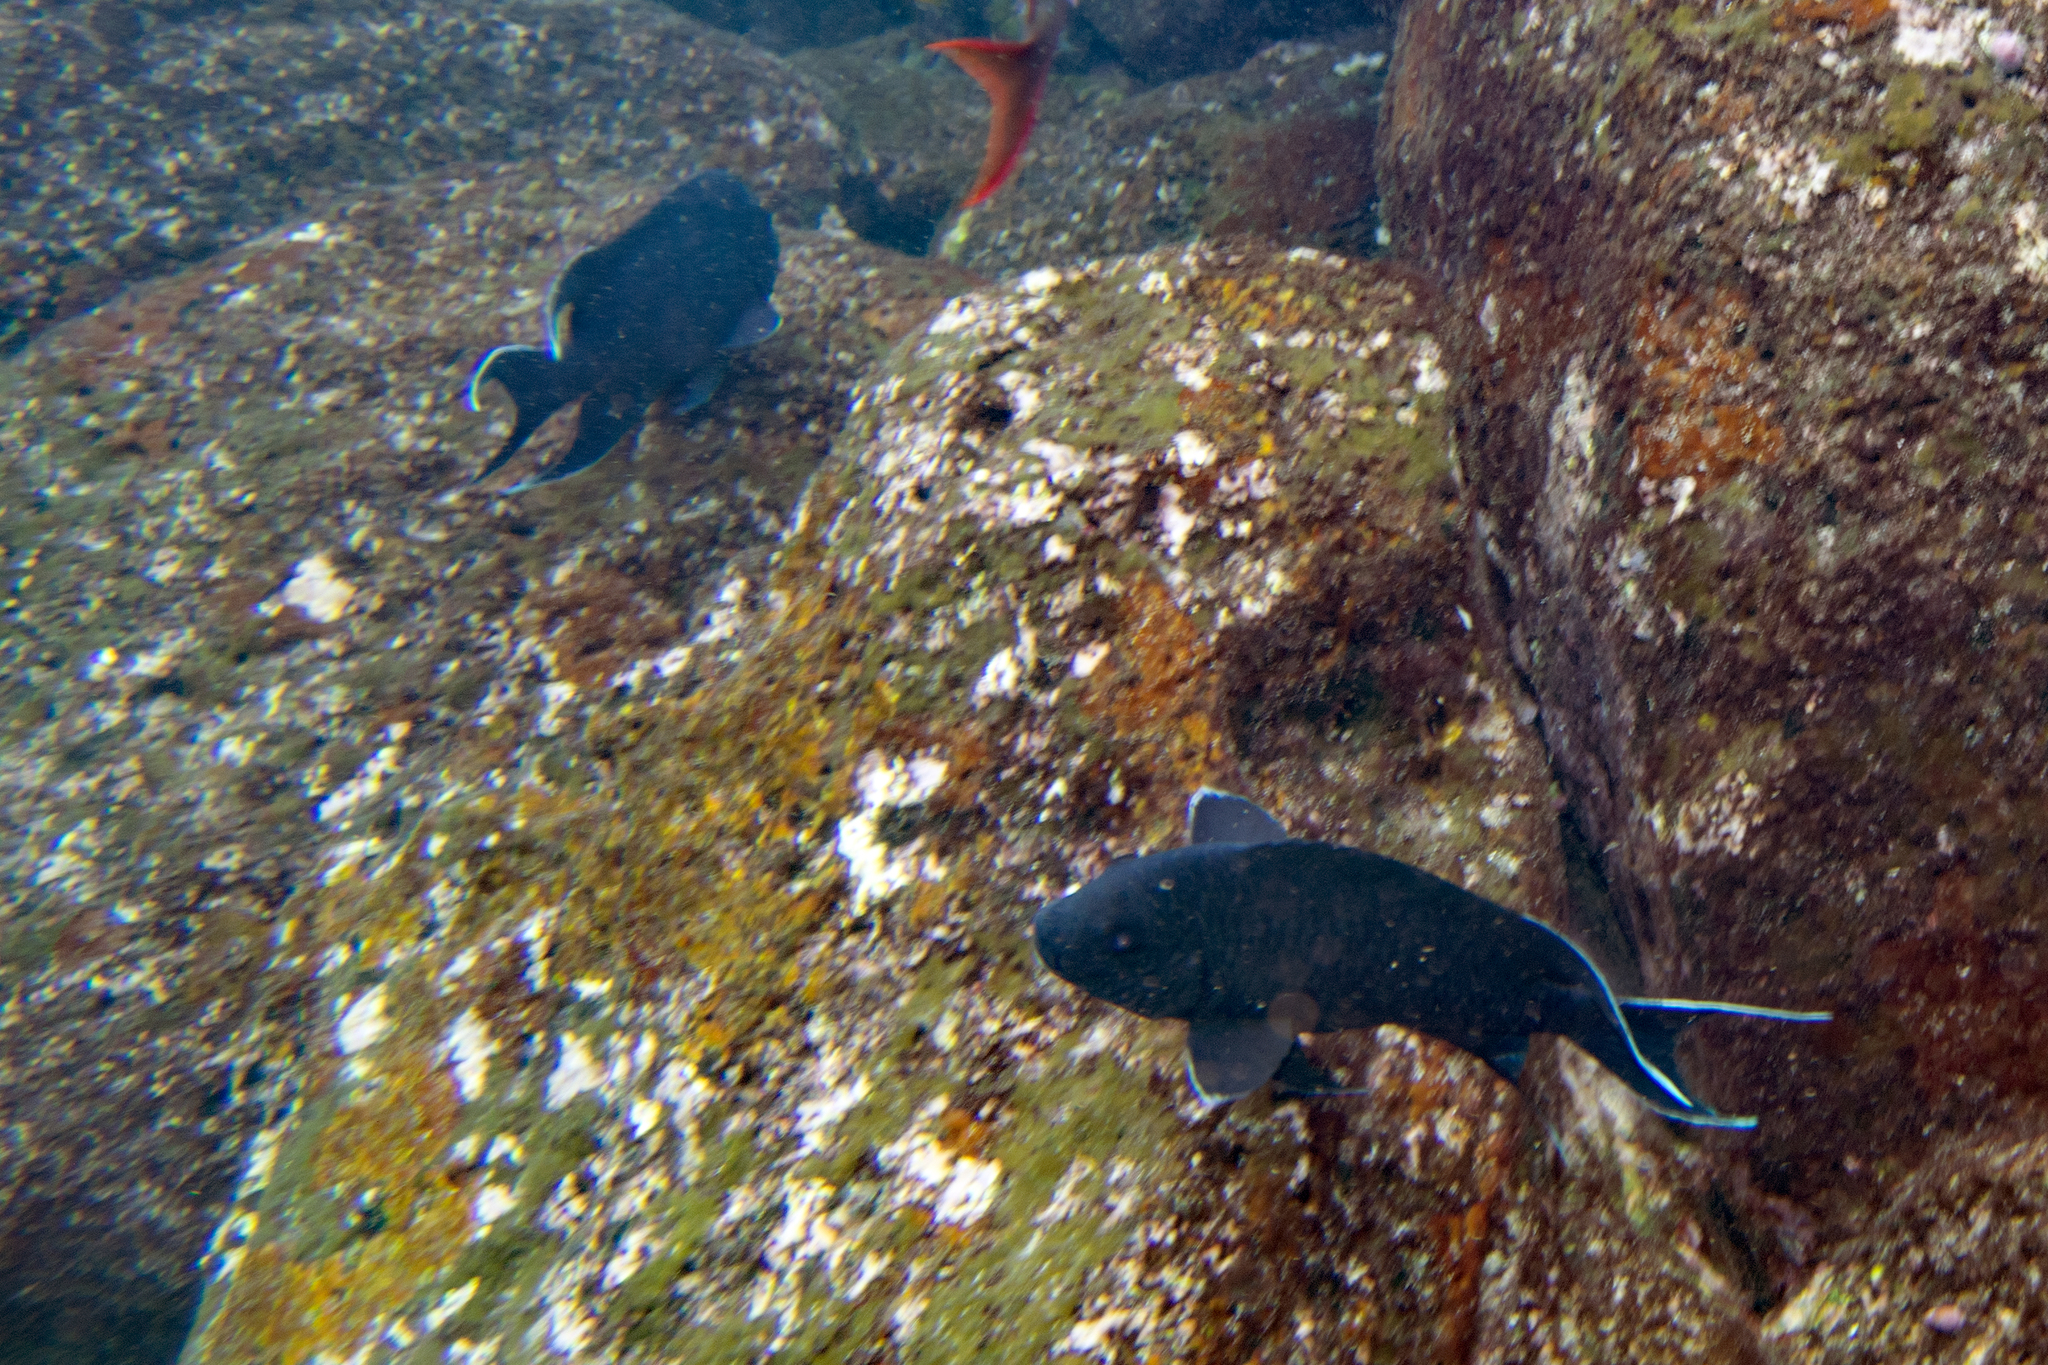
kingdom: Animalia
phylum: Chordata
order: Perciformes
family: Pomacentridae
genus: Microspathodon
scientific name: Microspathodon dorsalis
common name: Giant damselfish
